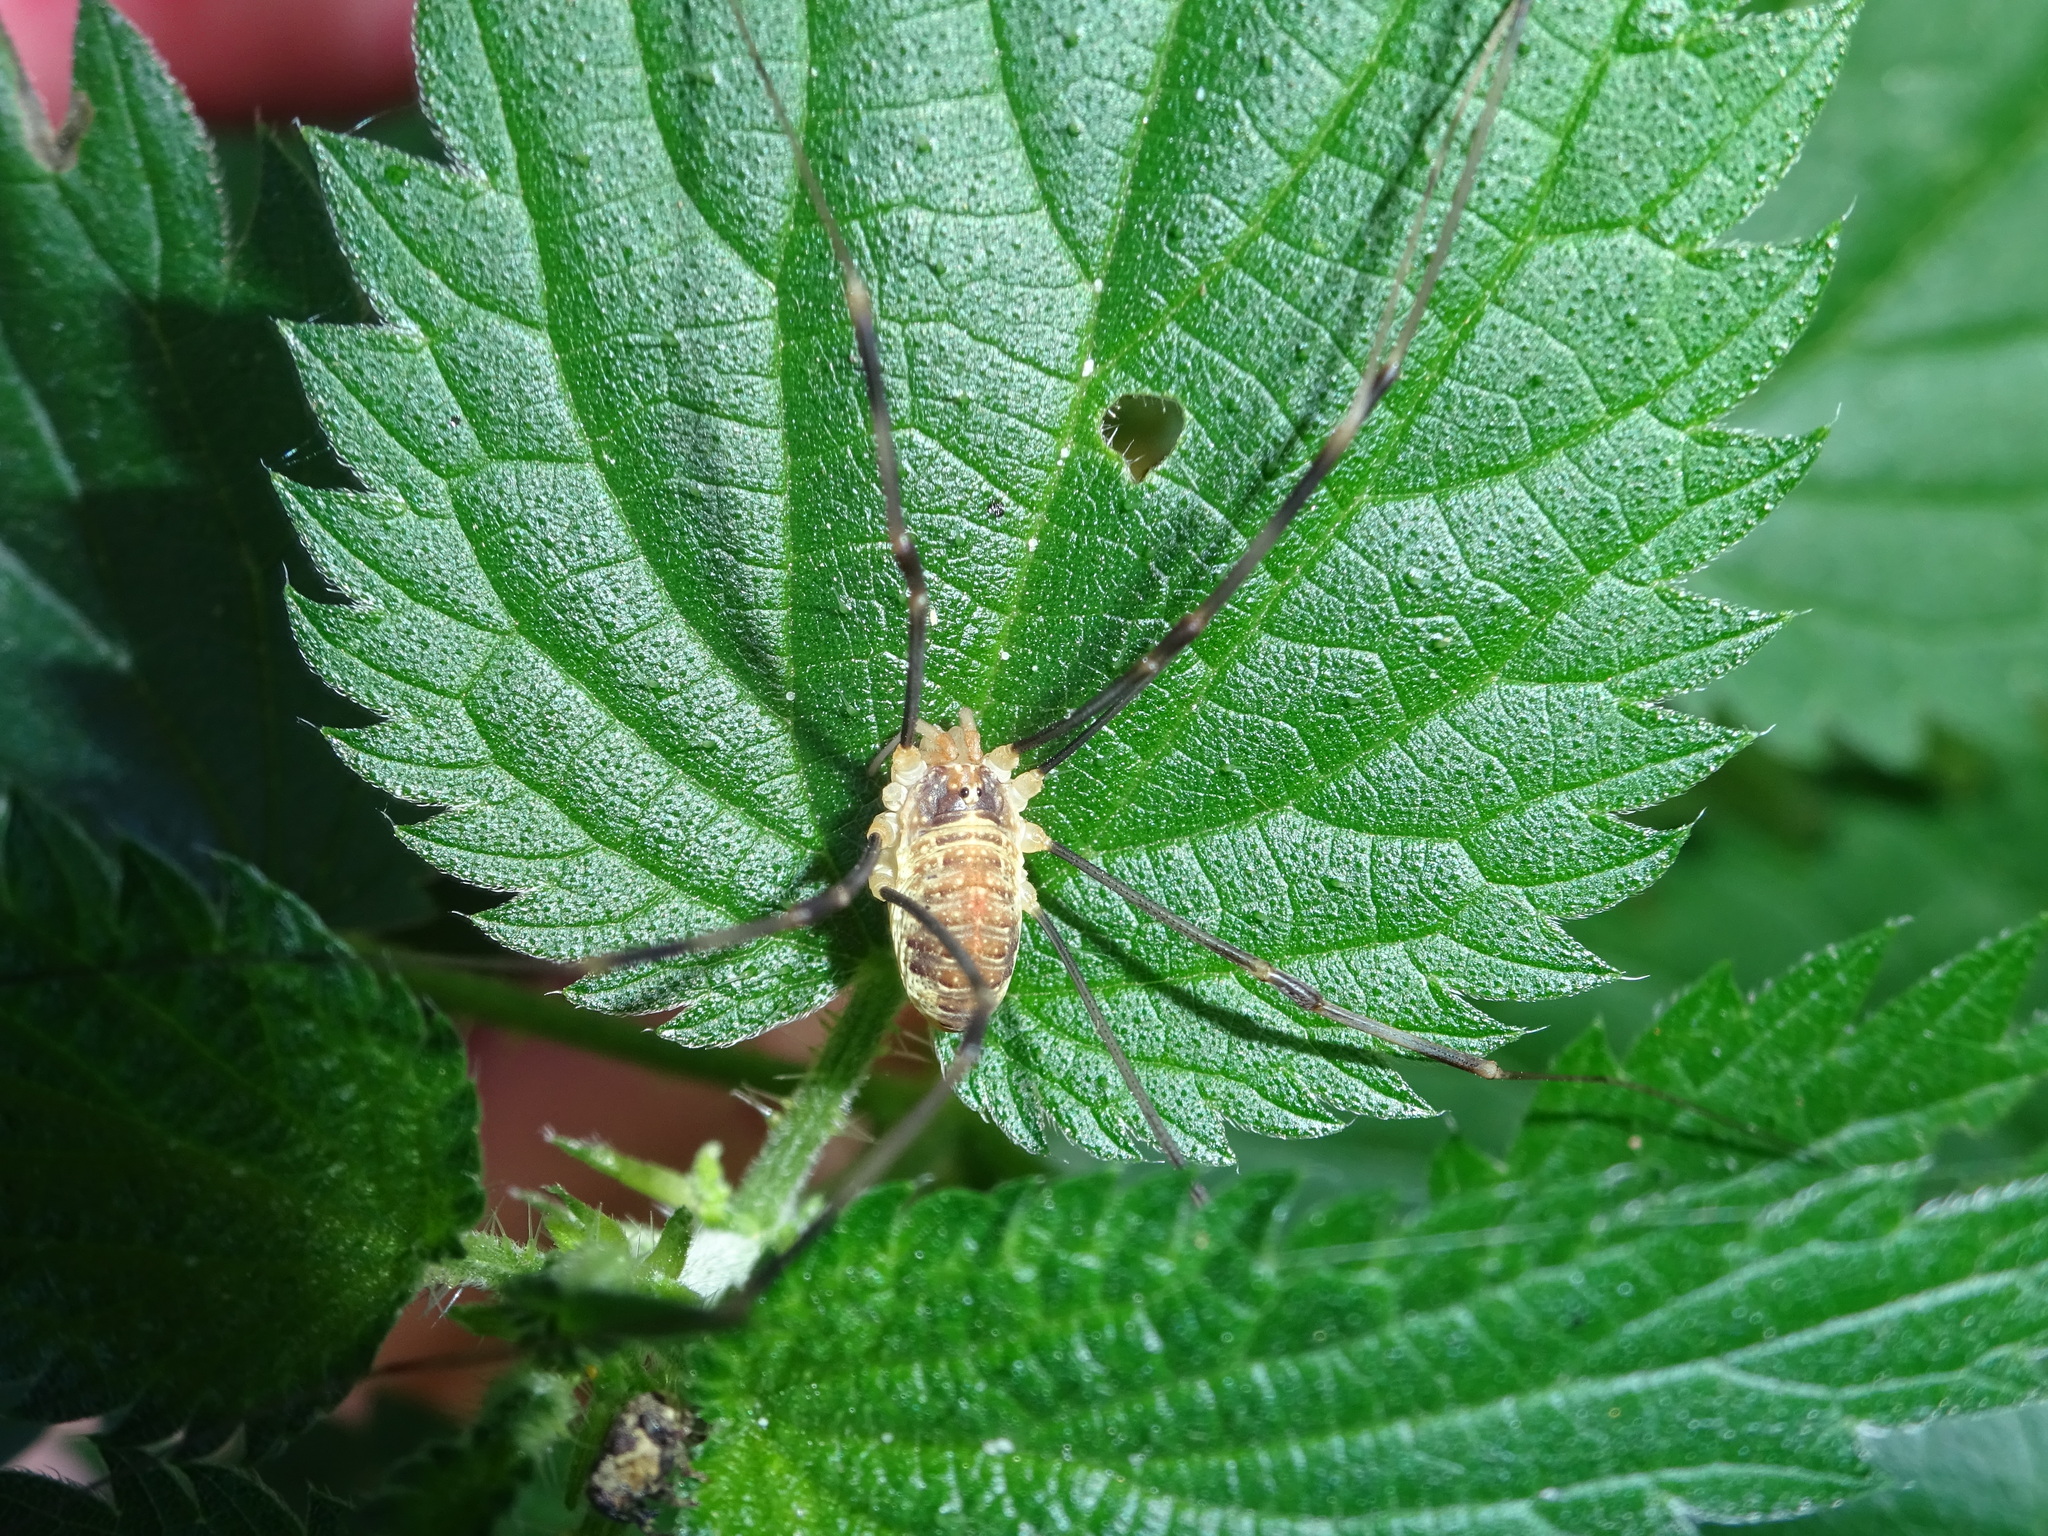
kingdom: Animalia
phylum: Arthropoda
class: Arachnida
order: Opiliones
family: Phalangiidae
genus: Opilio
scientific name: Opilio canestrinii
